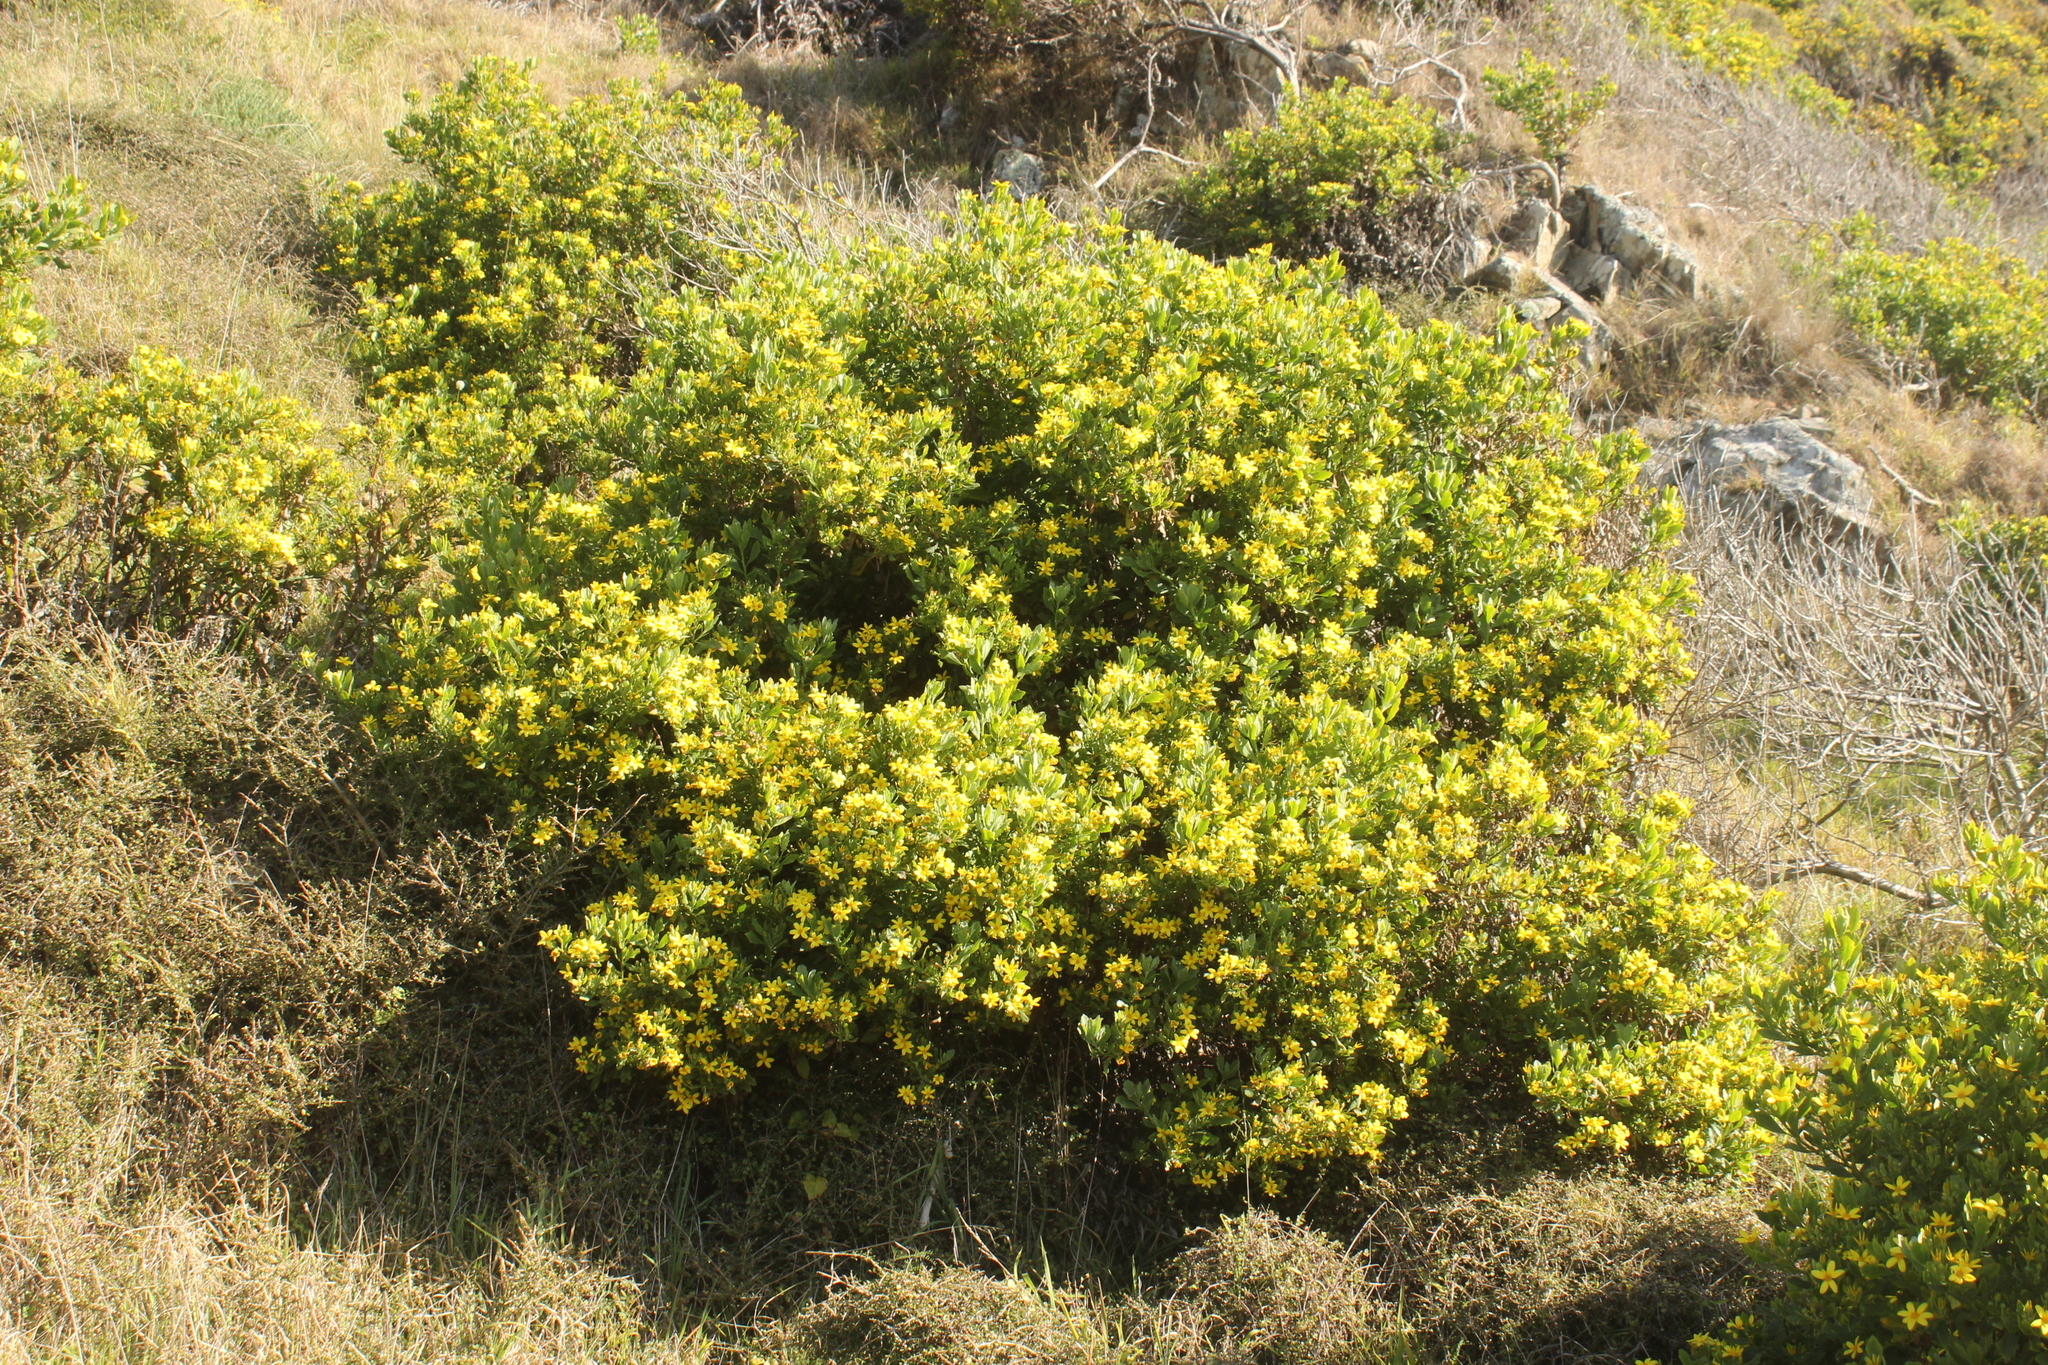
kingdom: Plantae
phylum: Tracheophyta
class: Magnoliopsida
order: Asterales
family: Asteraceae
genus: Osteospermum
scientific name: Osteospermum moniliferum
